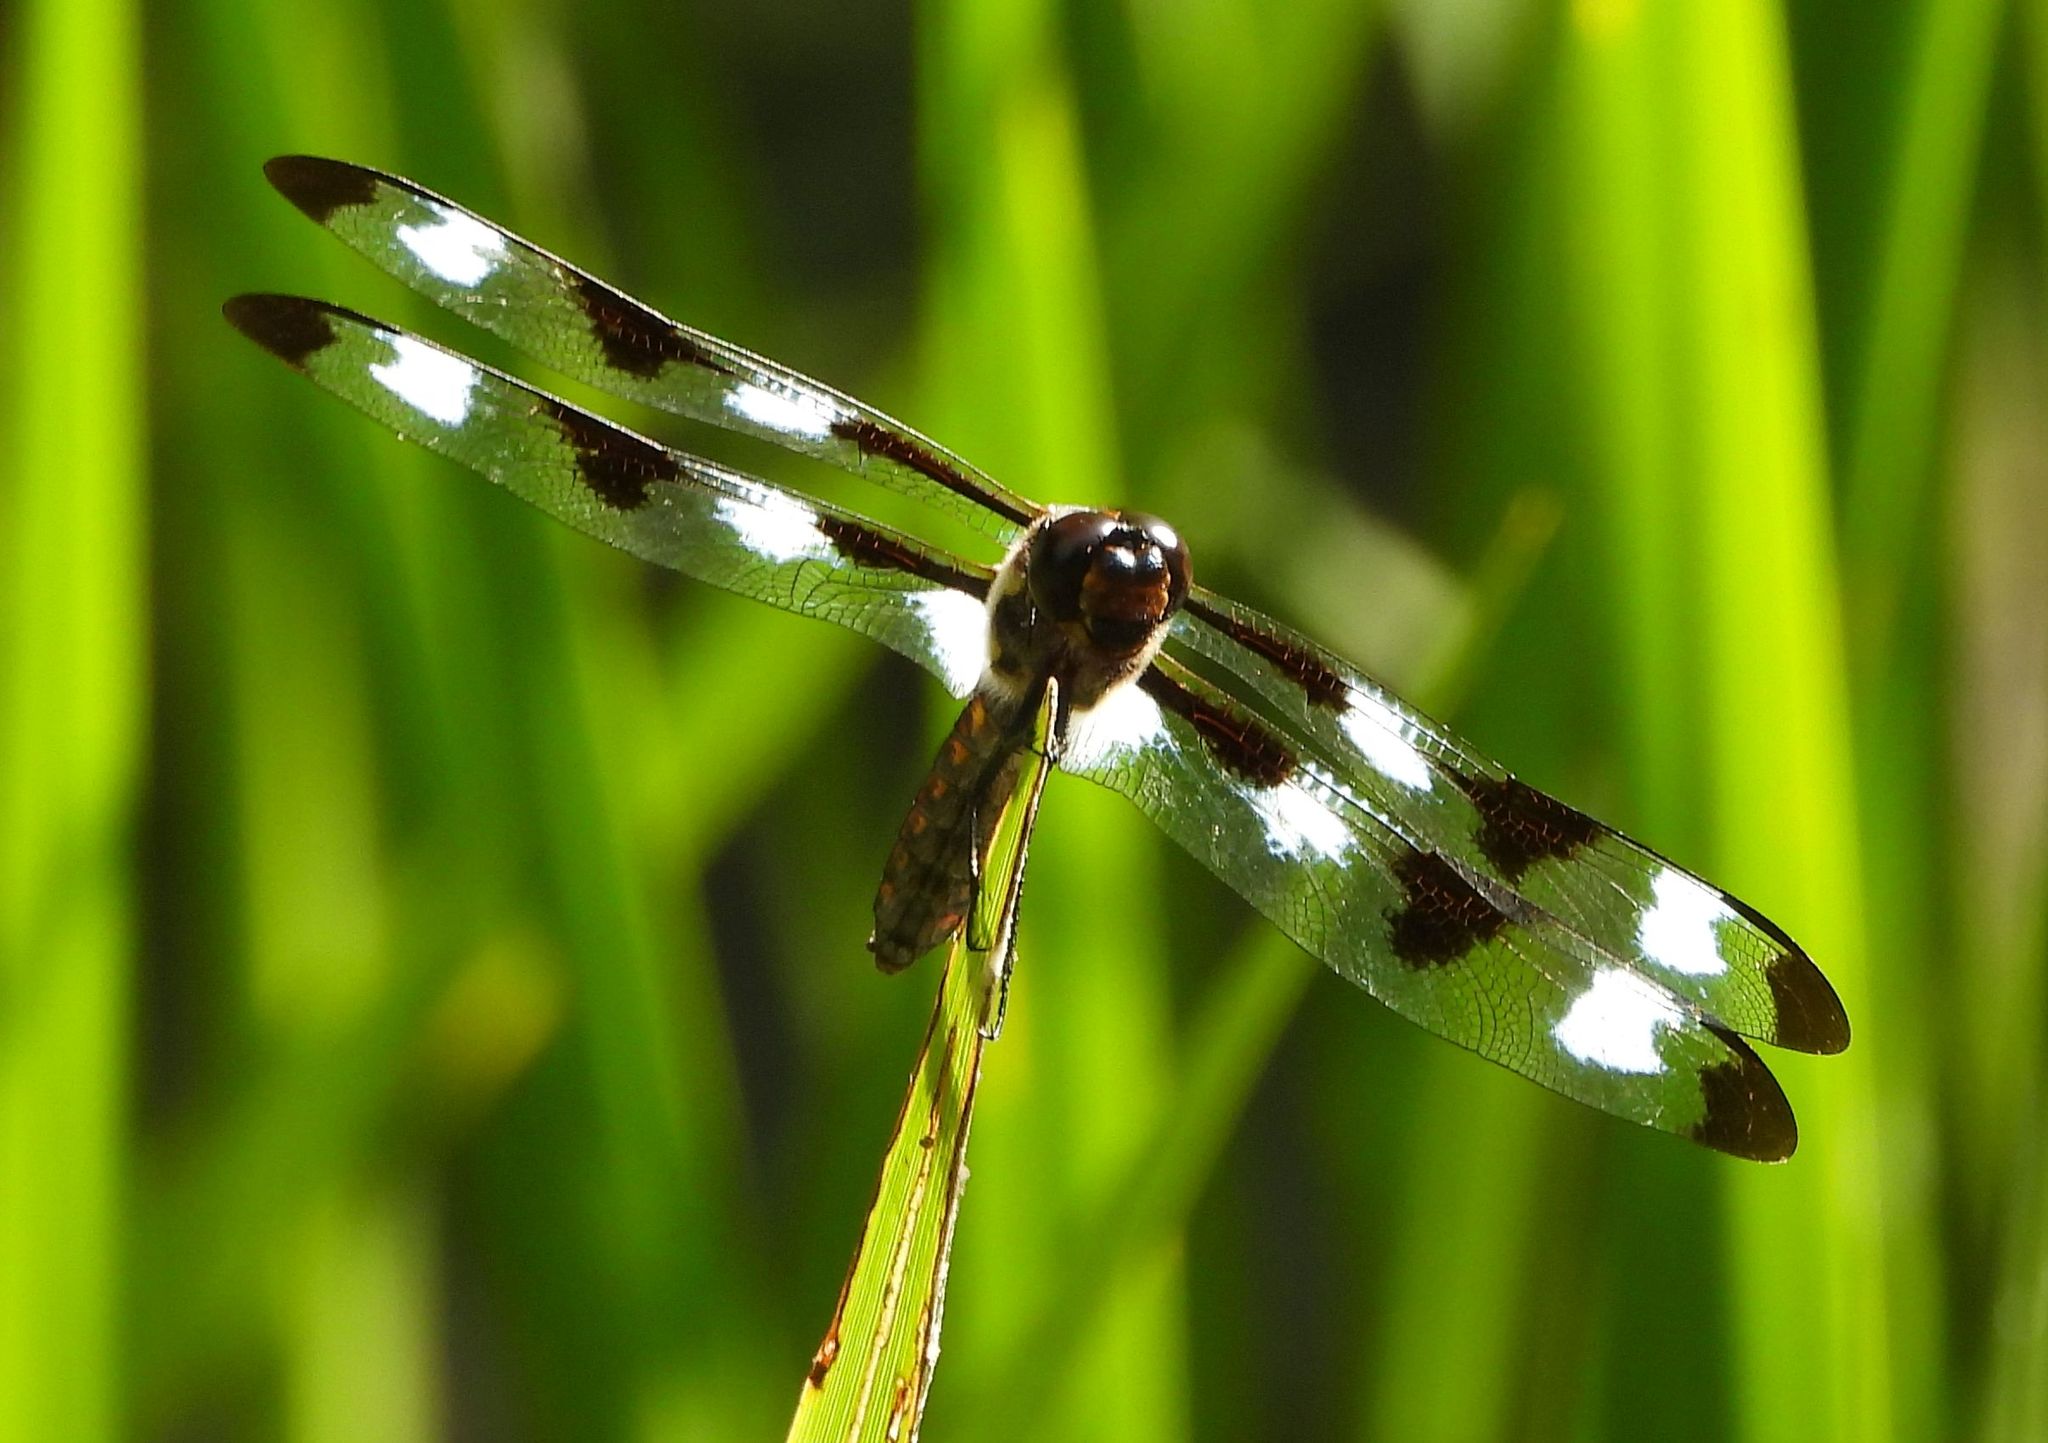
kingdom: Animalia
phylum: Arthropoda
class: Insecta
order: Odonata
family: Libellulidae
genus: Libellula
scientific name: Libellula pulchella
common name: Twelve-spotted skimmer
